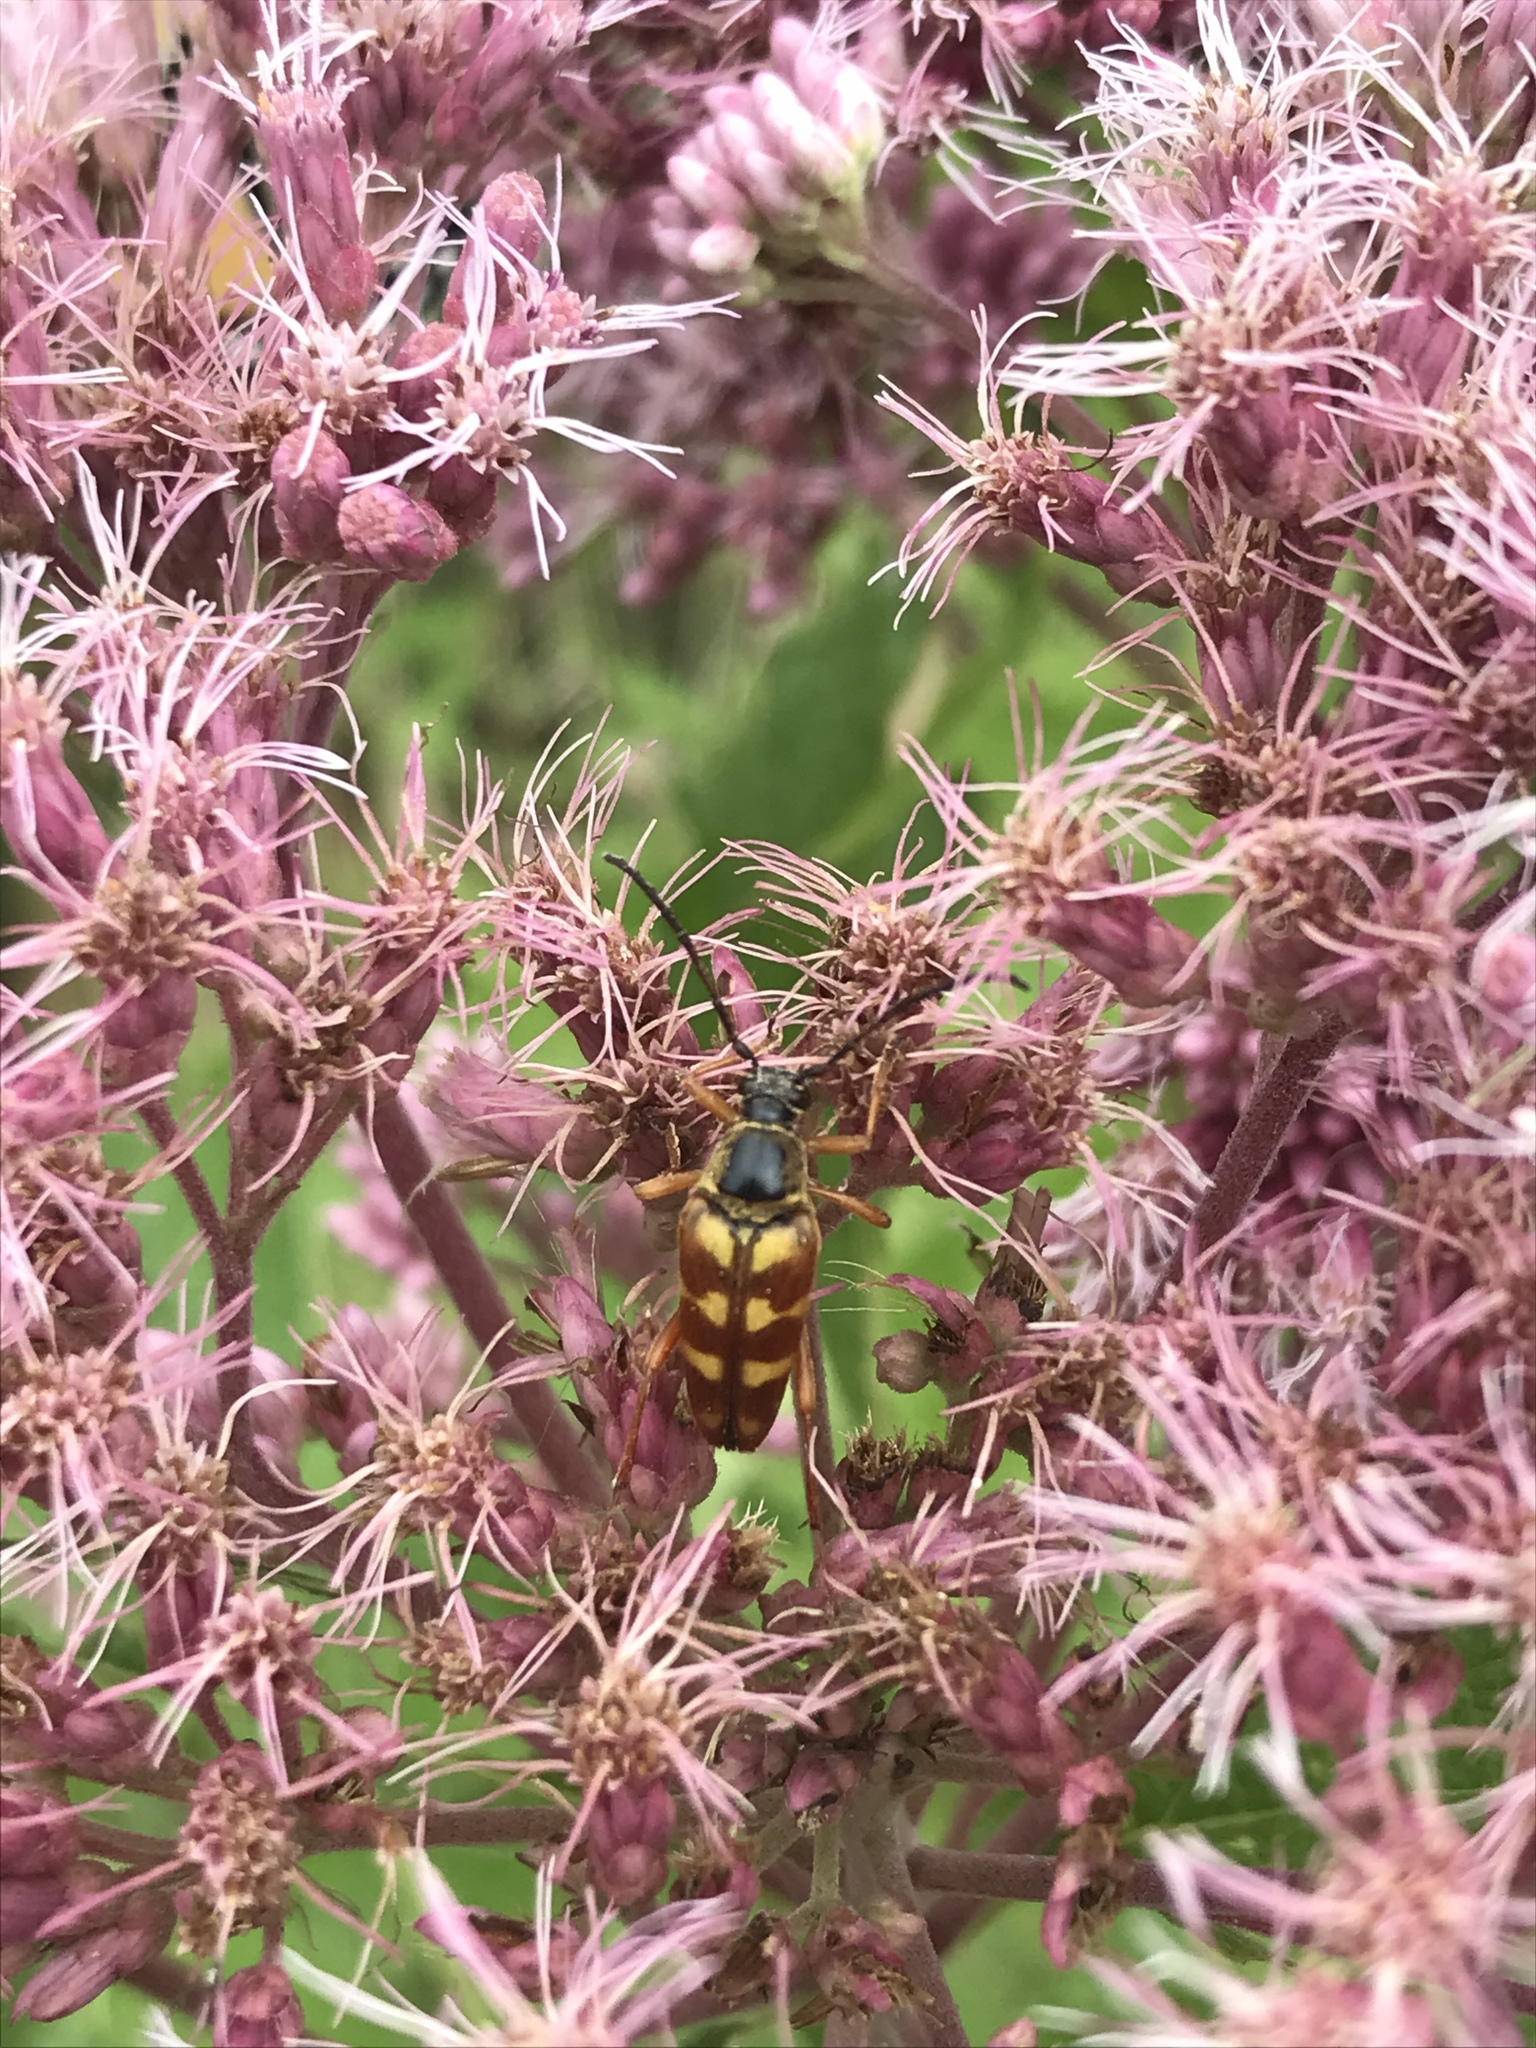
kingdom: Animalia
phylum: Arthropoda
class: Insecta
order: Coleoptera
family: Cerambycidae
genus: Typocerus
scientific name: Typocerus velutinus
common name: Banded longhorn beetle
